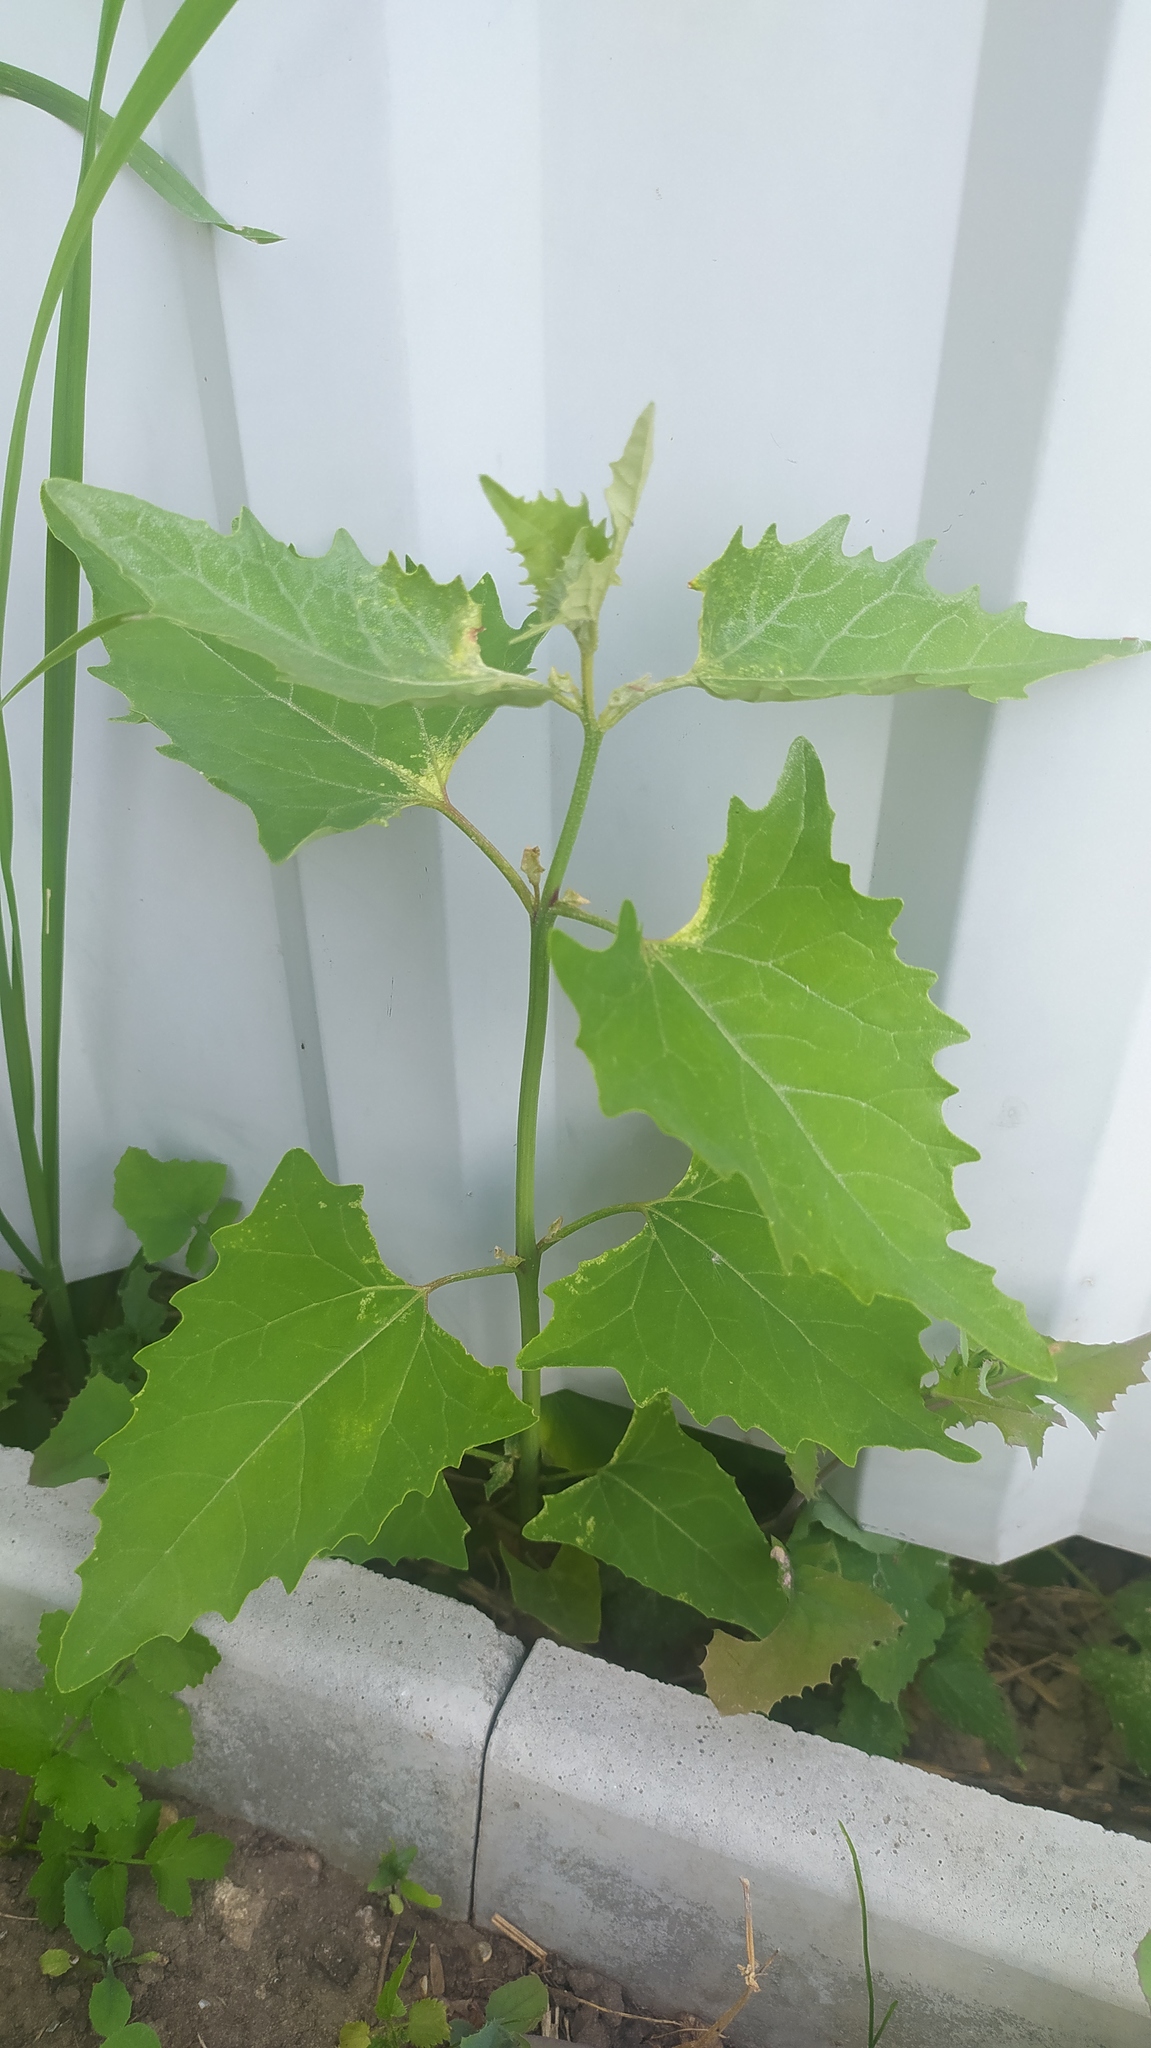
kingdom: Plantae
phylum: Tracheophyta
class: Magnoliopsida
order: Caryophyllales
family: Amaranthaceae
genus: Atriplex
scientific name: Atriplex sagittata
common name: Purple orache
